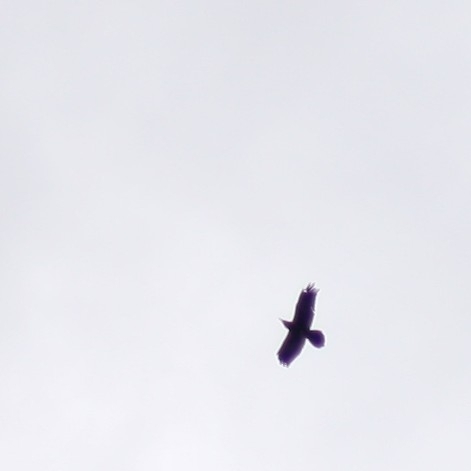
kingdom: Animalia
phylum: Chordata
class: Aves
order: Passeriformes
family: Corvidae
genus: Corvus
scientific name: Corvus corax
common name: Common raven
